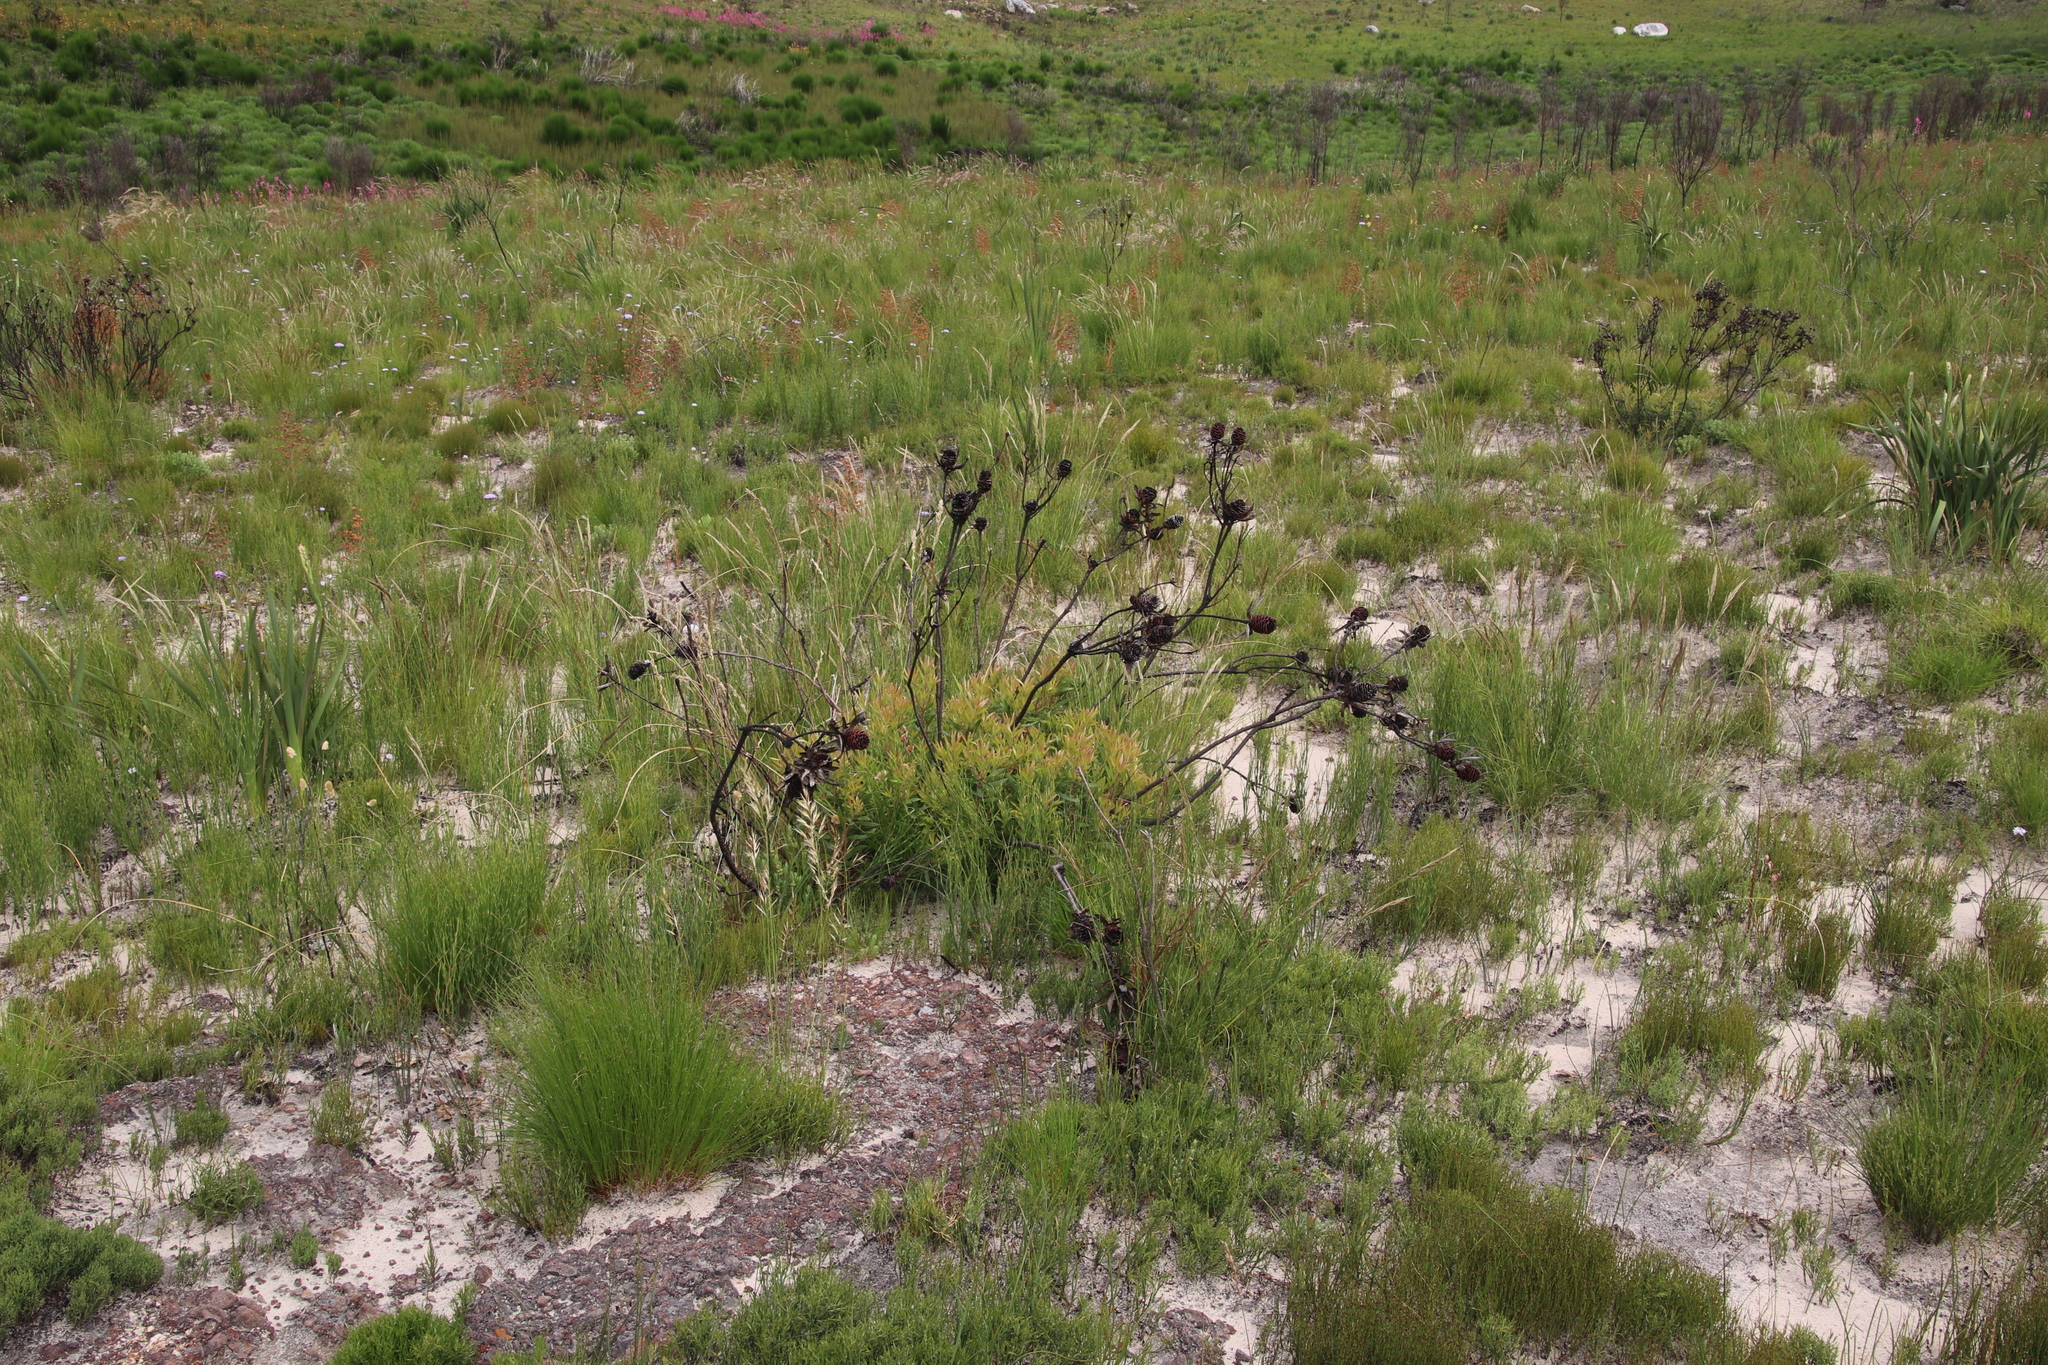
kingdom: Plantae
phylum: Tracheophyta
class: Magnoliopsida
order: Proteales
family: Proteaceae
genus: Leucadendron
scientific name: Leucadendron spissifolium
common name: Spear-leaf conebush
